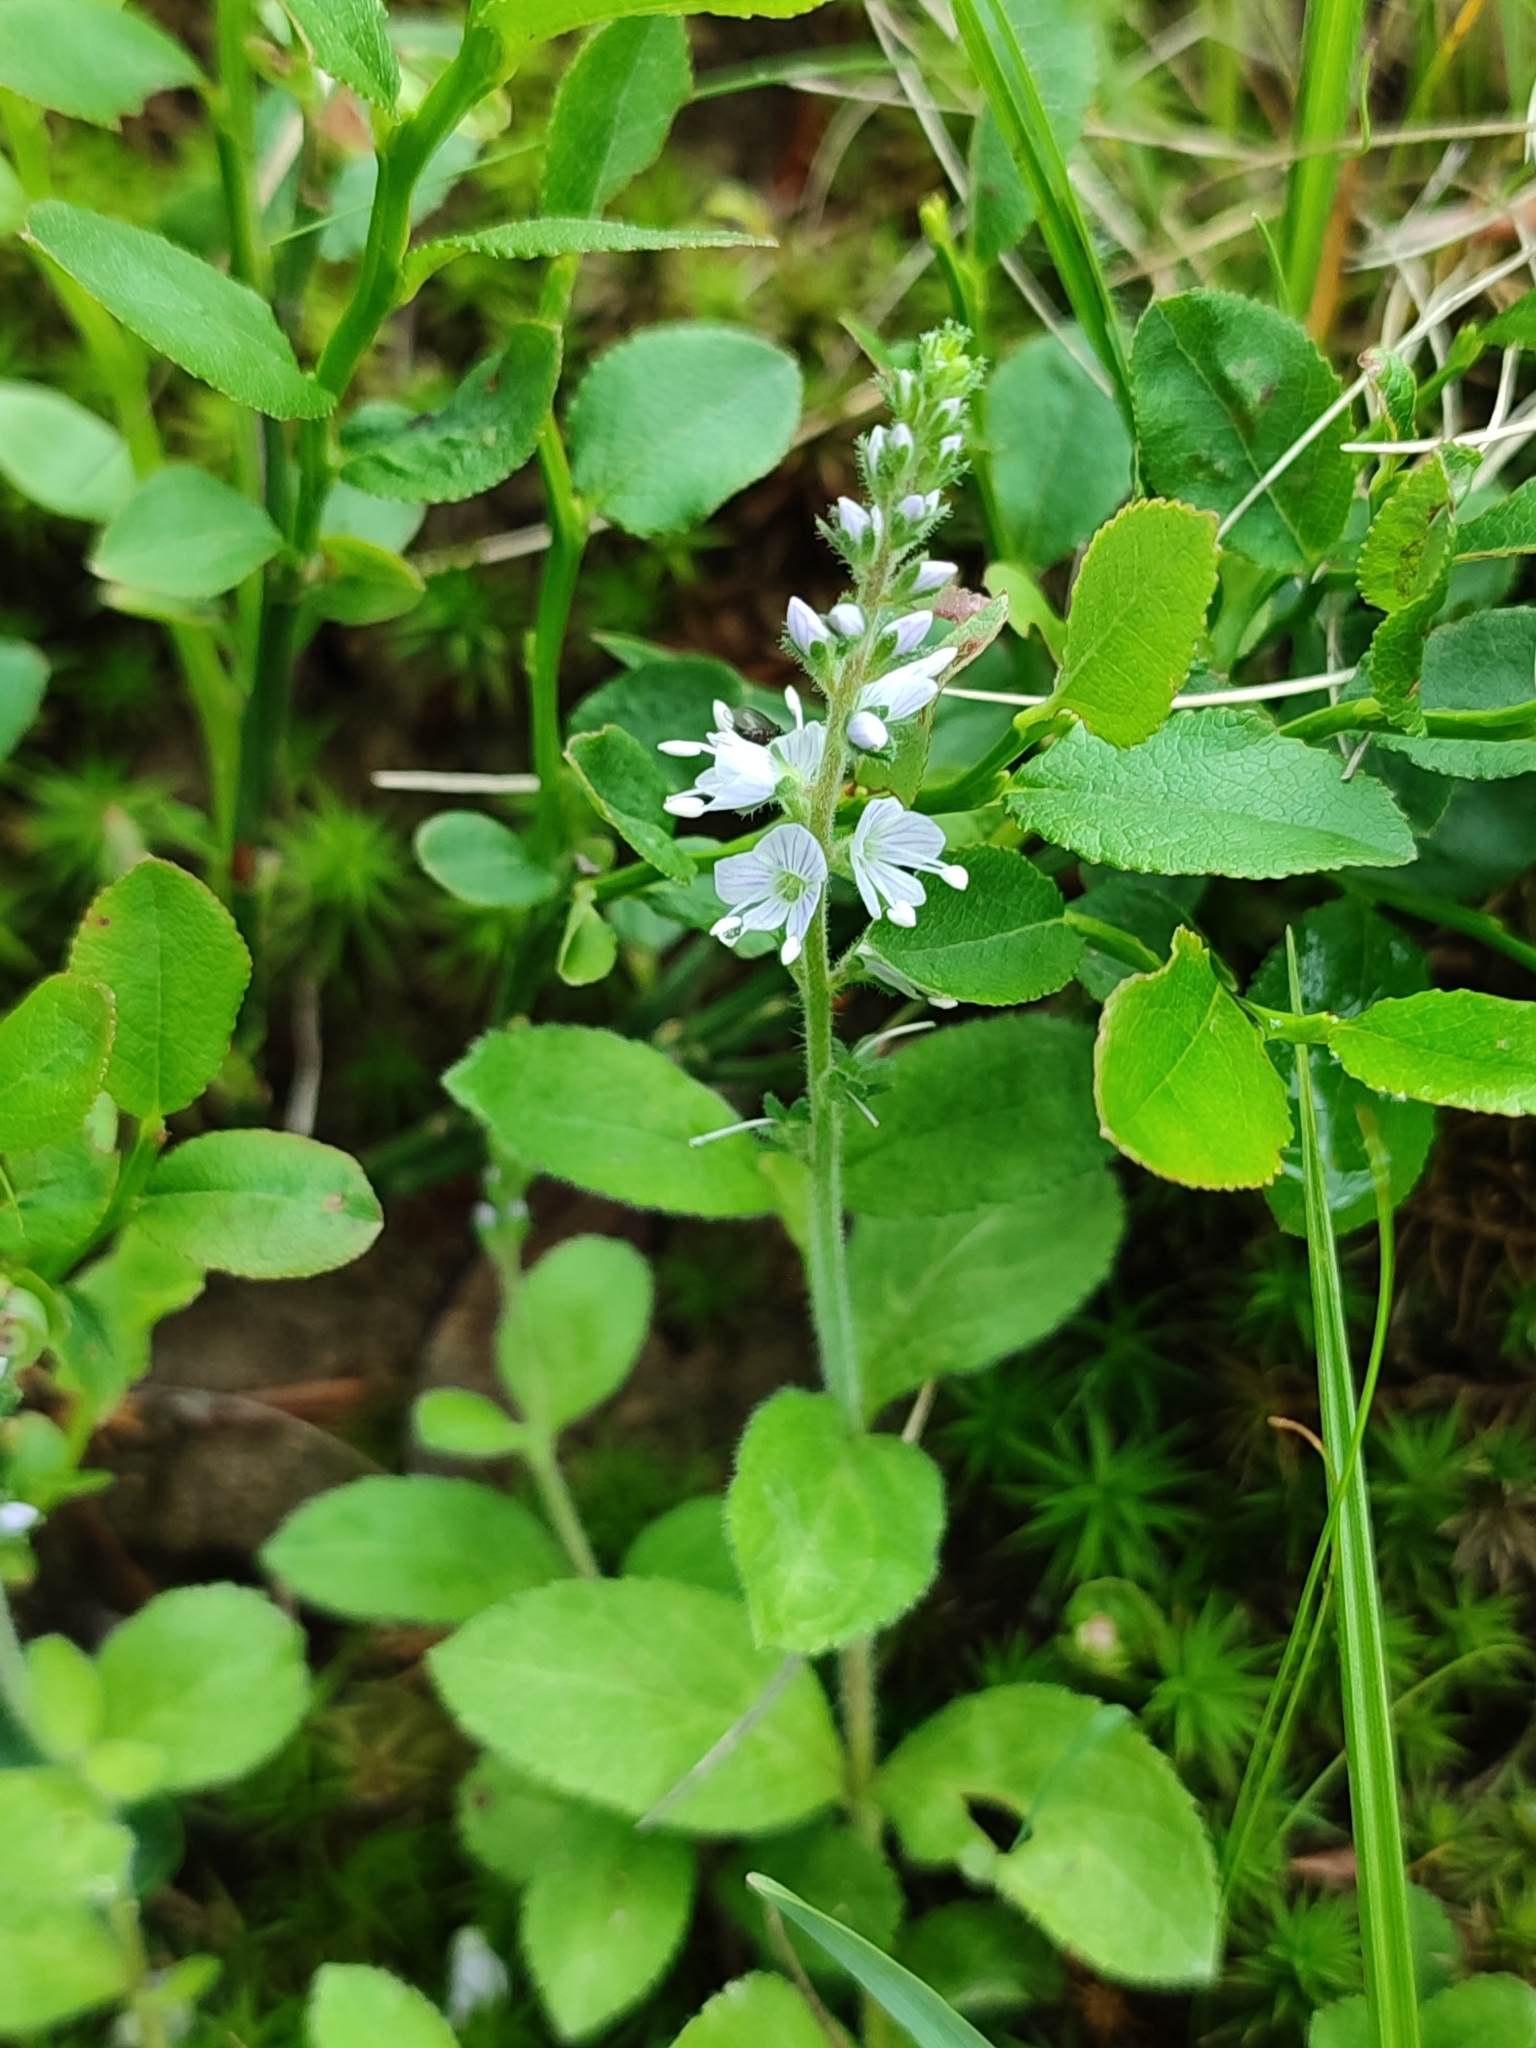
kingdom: Plantae
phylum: Tracheophyta
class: Magnoliopsida
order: Lamiales
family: Plantaginaceae
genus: Veronica
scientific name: Veronica officinalis
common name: Common speedwell
